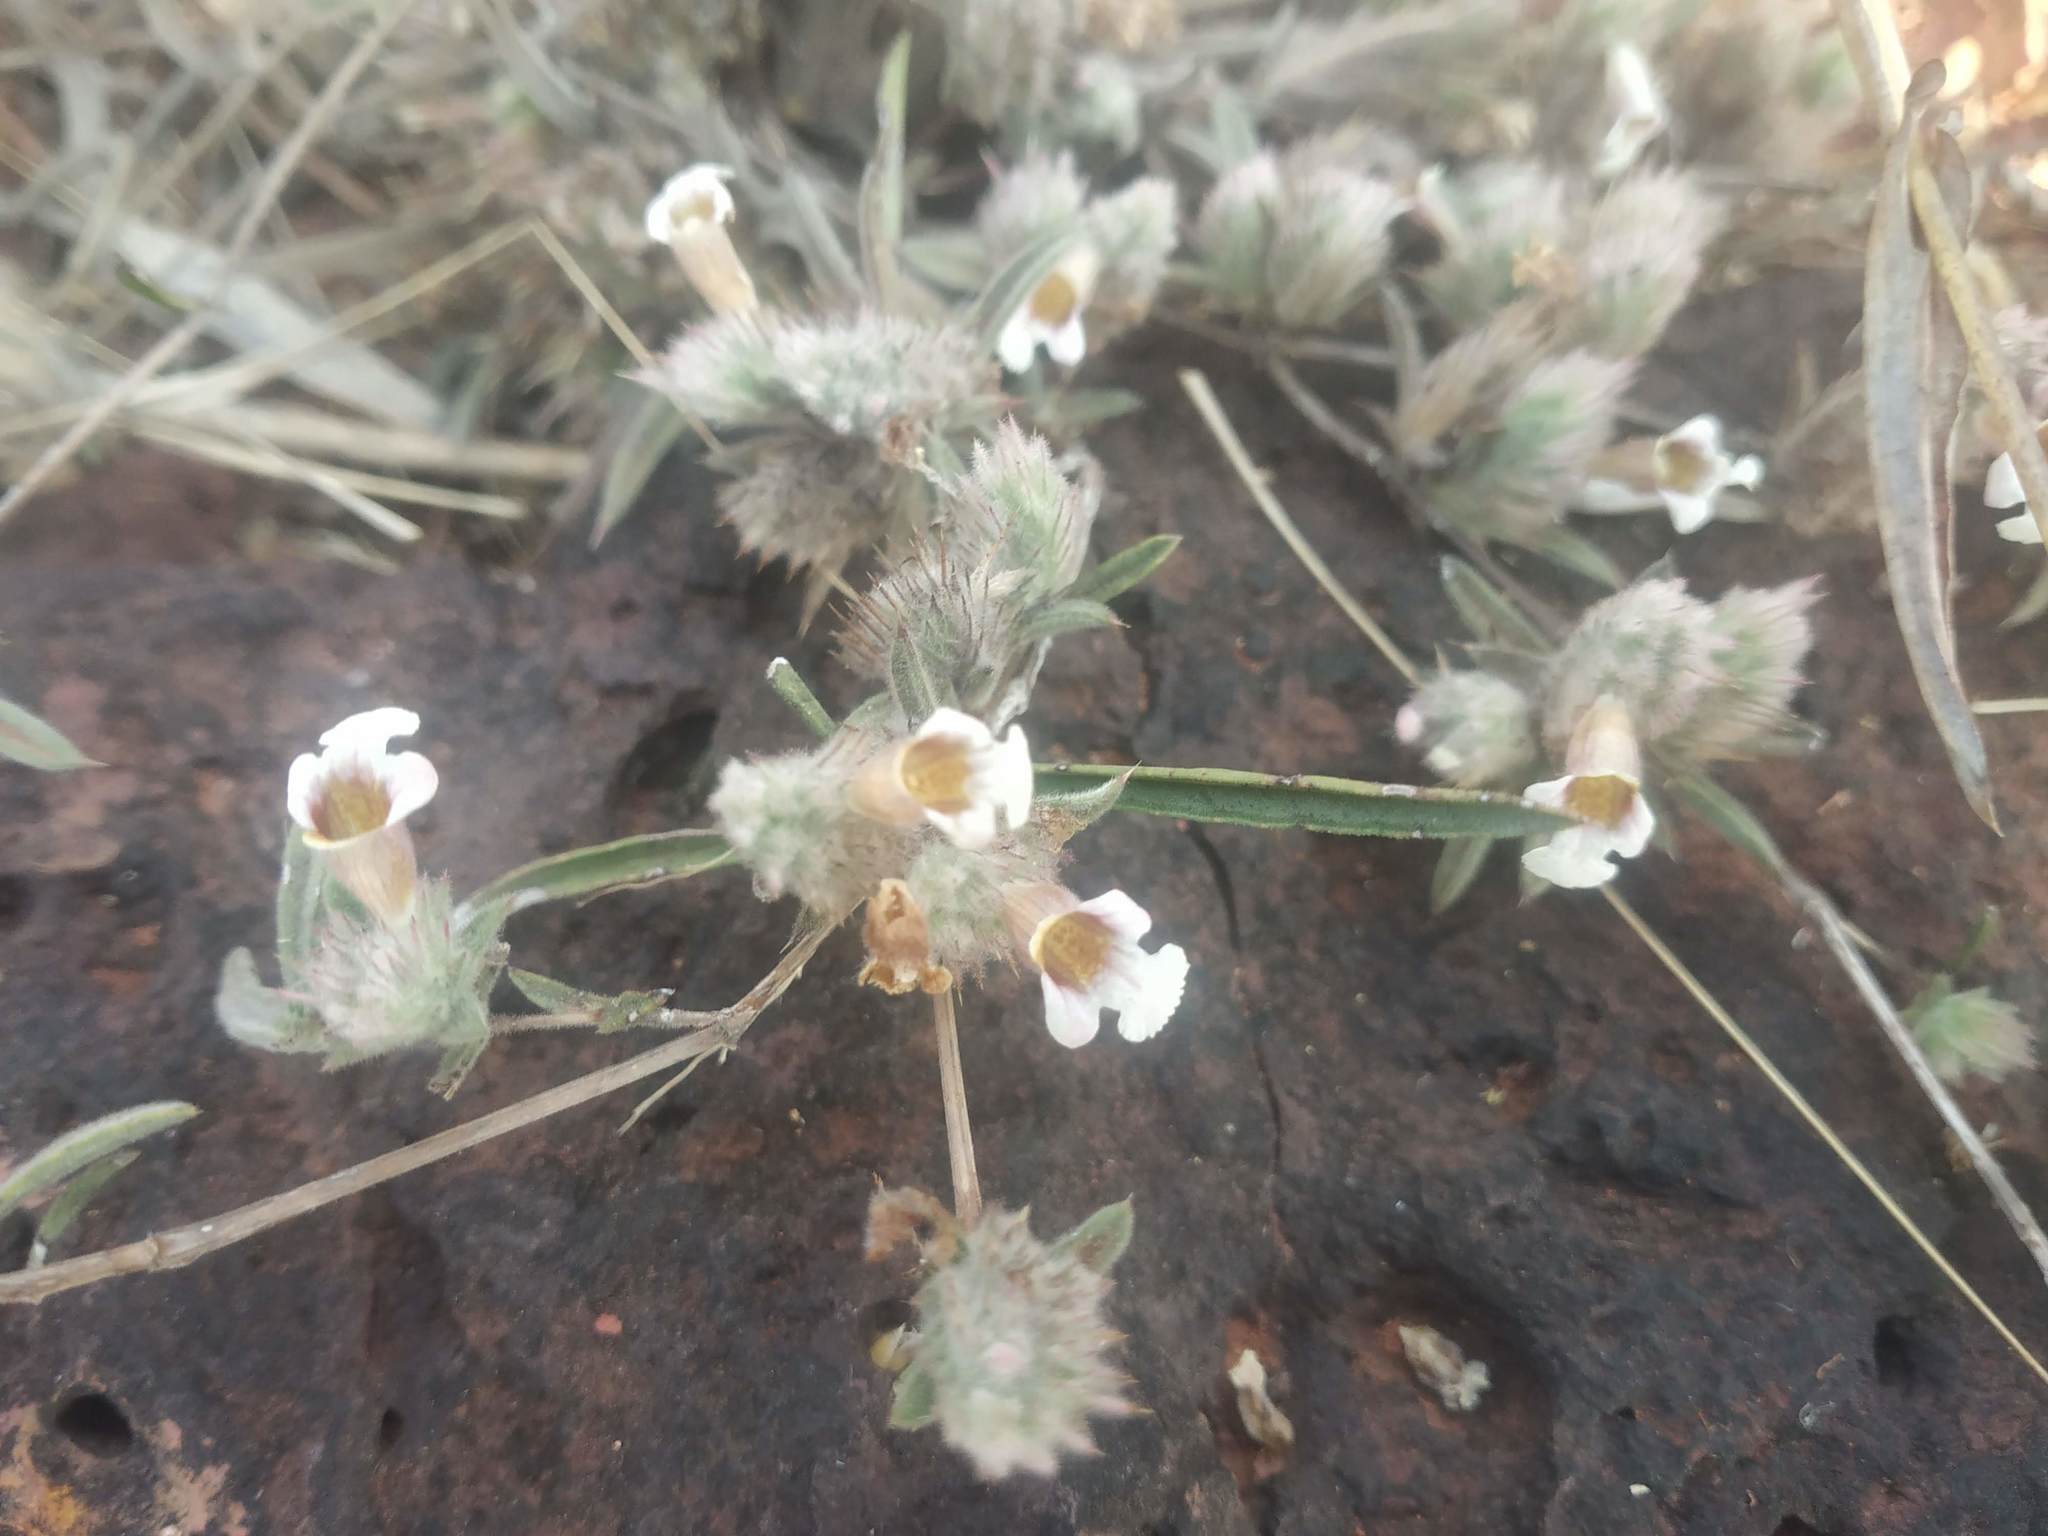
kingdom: Plantae
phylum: Tracheophyta
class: Magnoliopsida
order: Lamiales
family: Acanthaceae
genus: Lepidagathis
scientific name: Lepidagathis lutea
